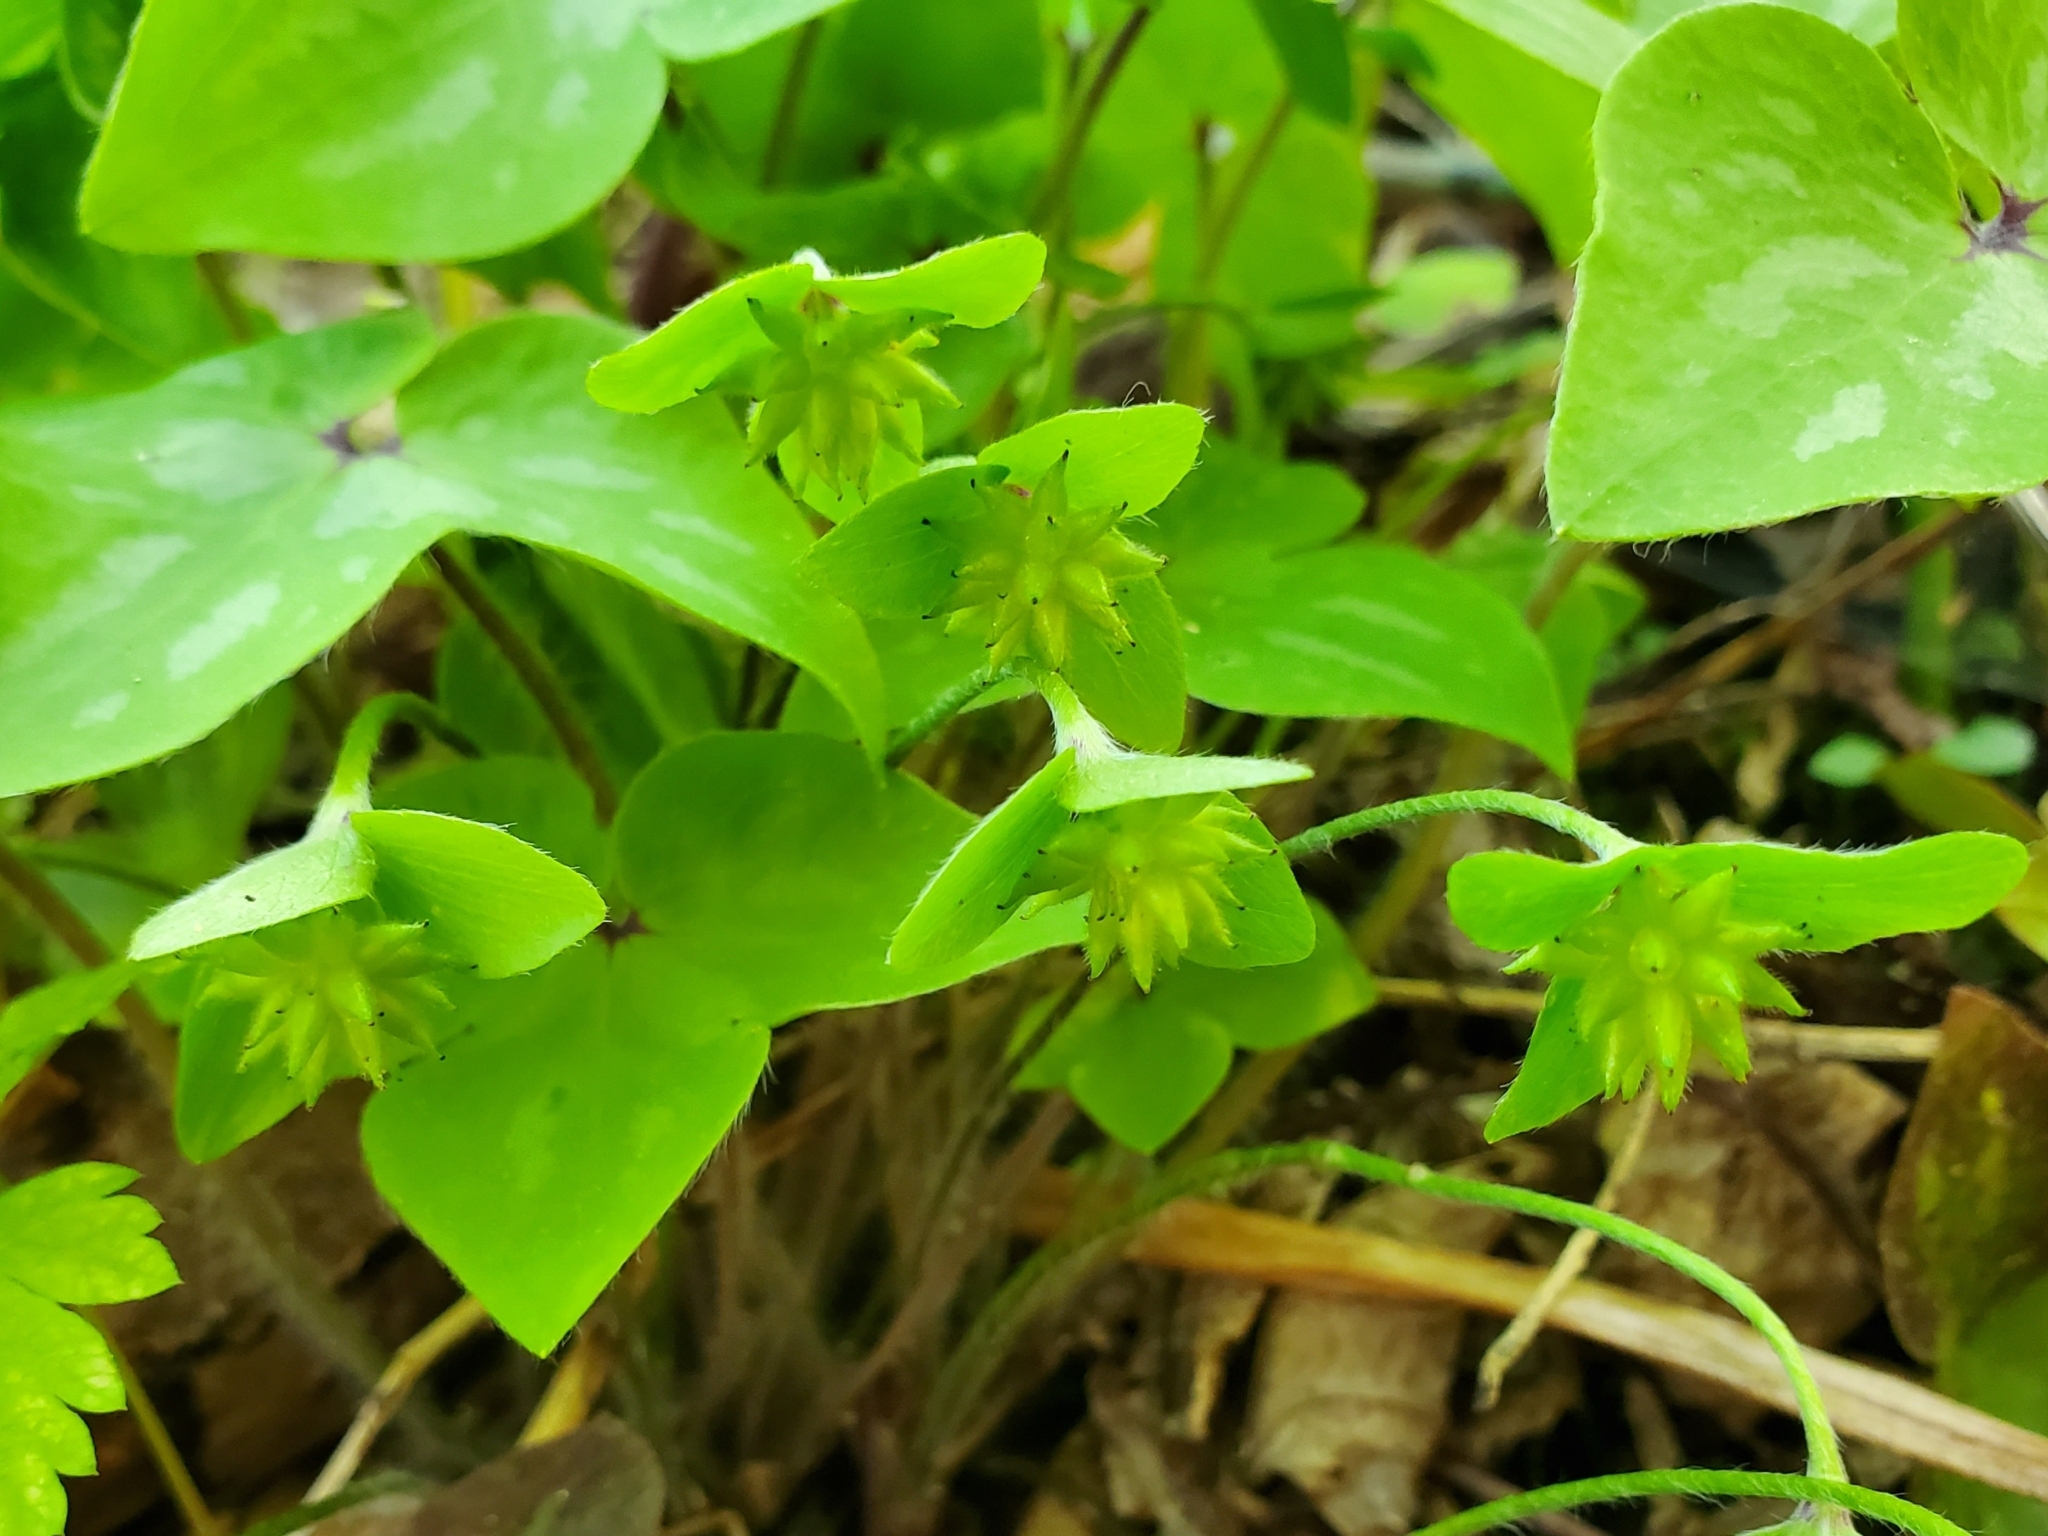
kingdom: Plantae
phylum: Tracheophyta
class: Magnoliopsida
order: Ranunculales
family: Ranunculaceae
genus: Hepatica
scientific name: Hepatica acutiloba
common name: Sharp-lobed hepatica
